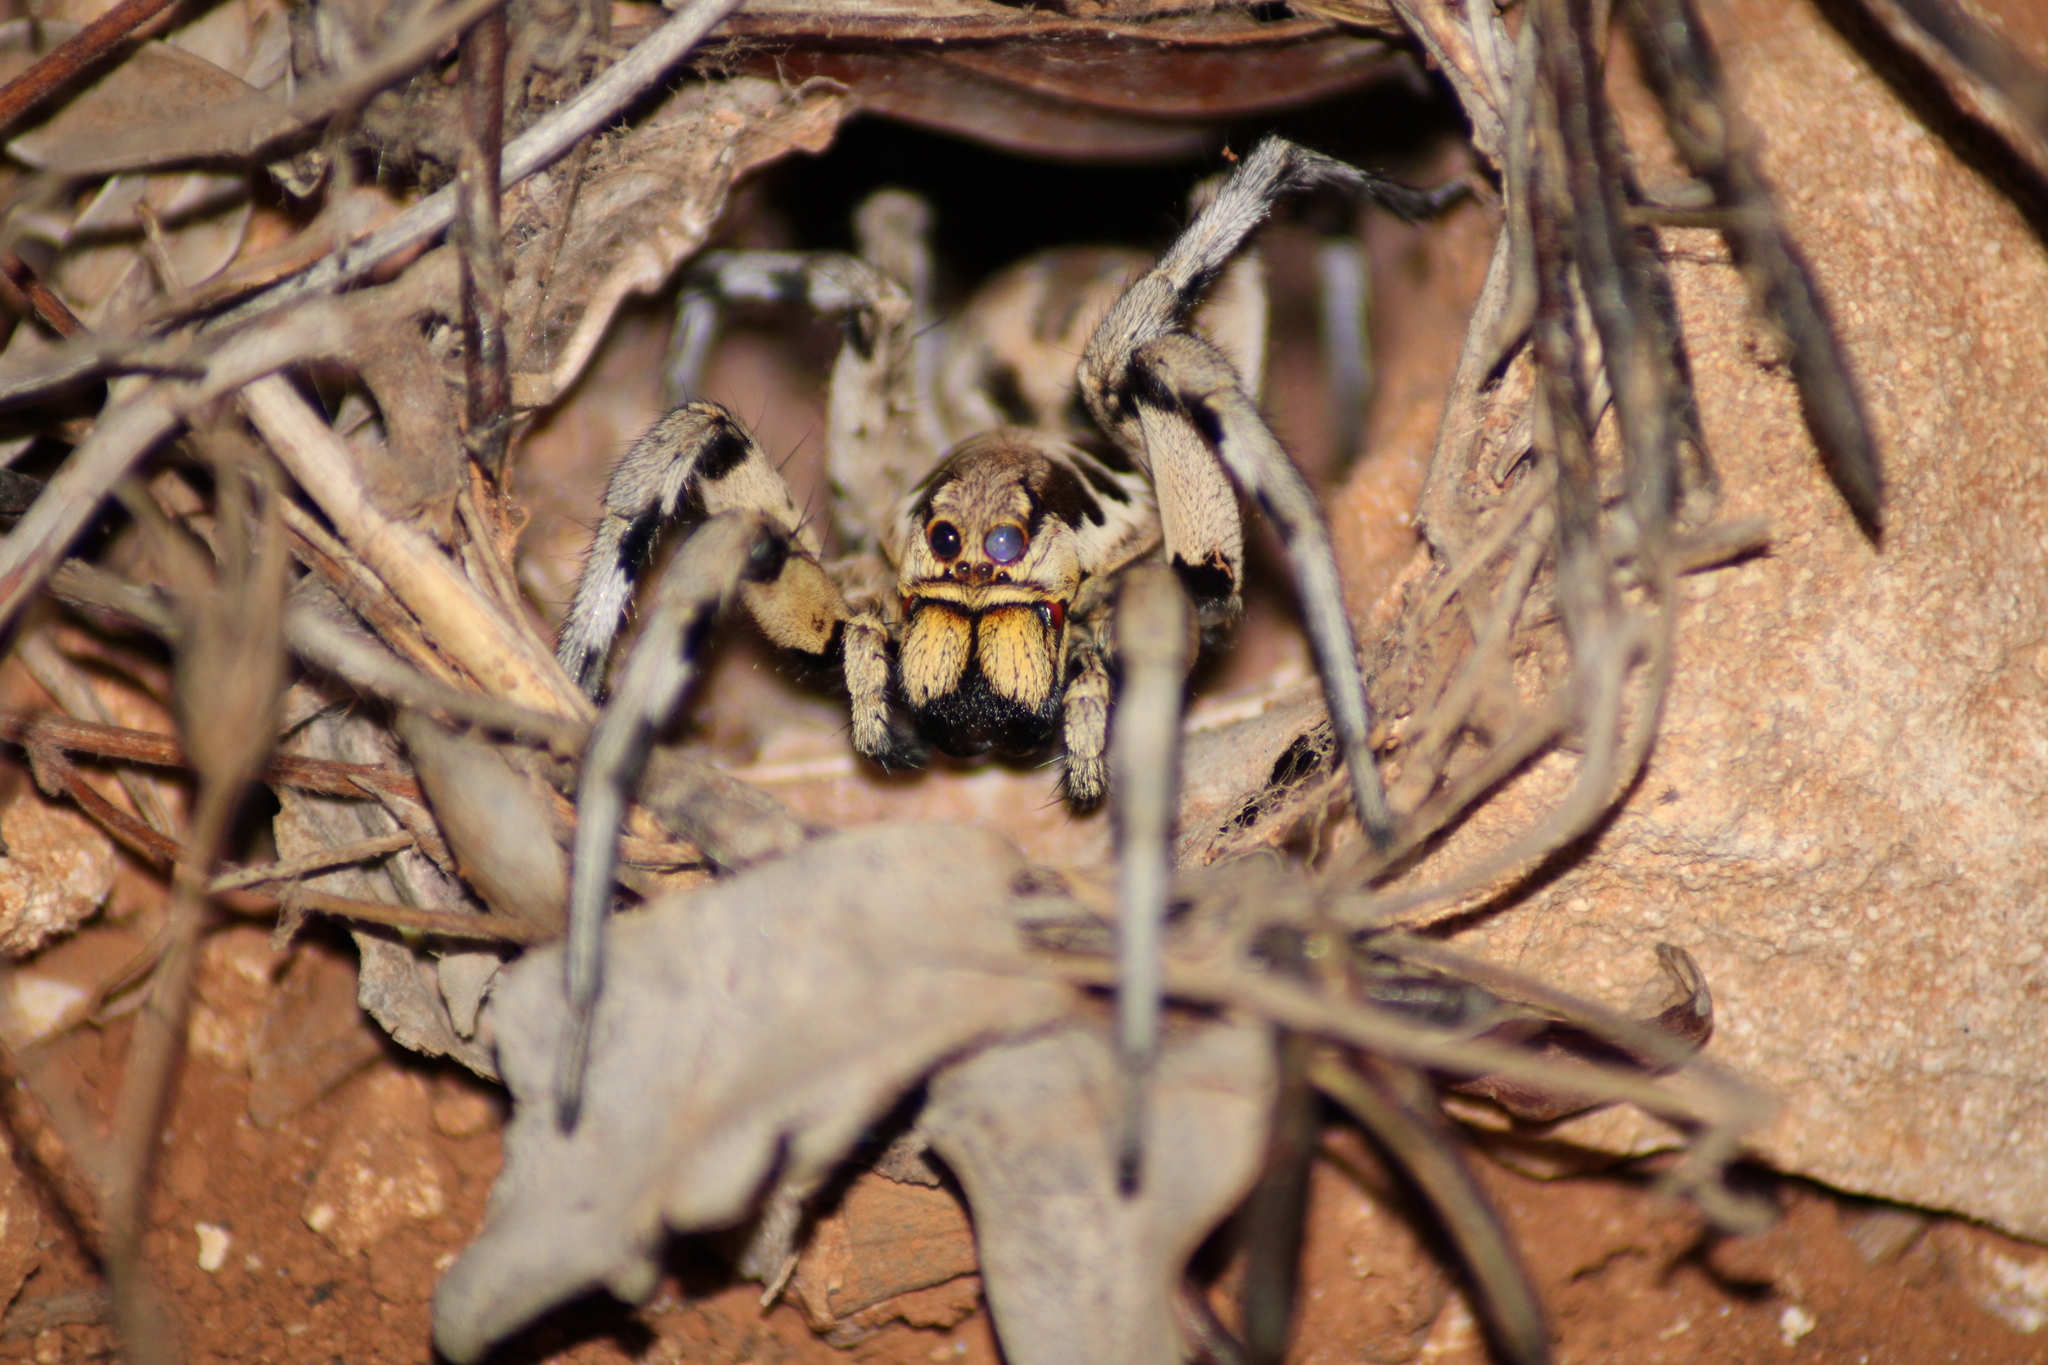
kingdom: Animalia
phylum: Arthropoda
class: Arachnida
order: Araneae
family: Lycosidae
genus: Lycosa
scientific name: Lycosa praegrandis
